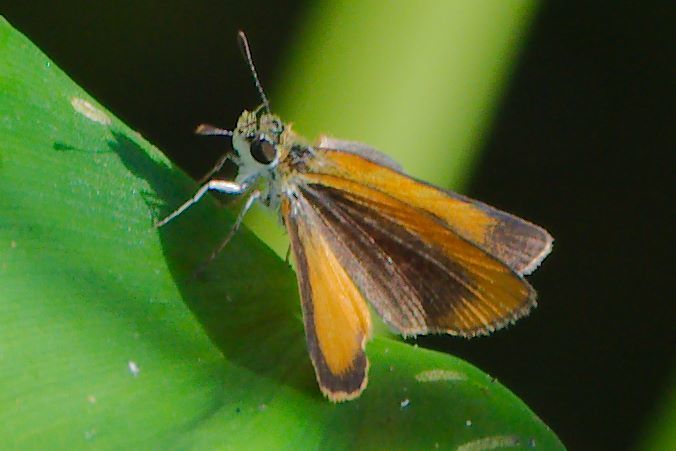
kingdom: Animalia
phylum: Arthropoda
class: Insecta
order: Lepidoptera
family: Hesperiidae
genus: Ancyloxypha
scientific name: Ancyloxypha numitor
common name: Least skipper
